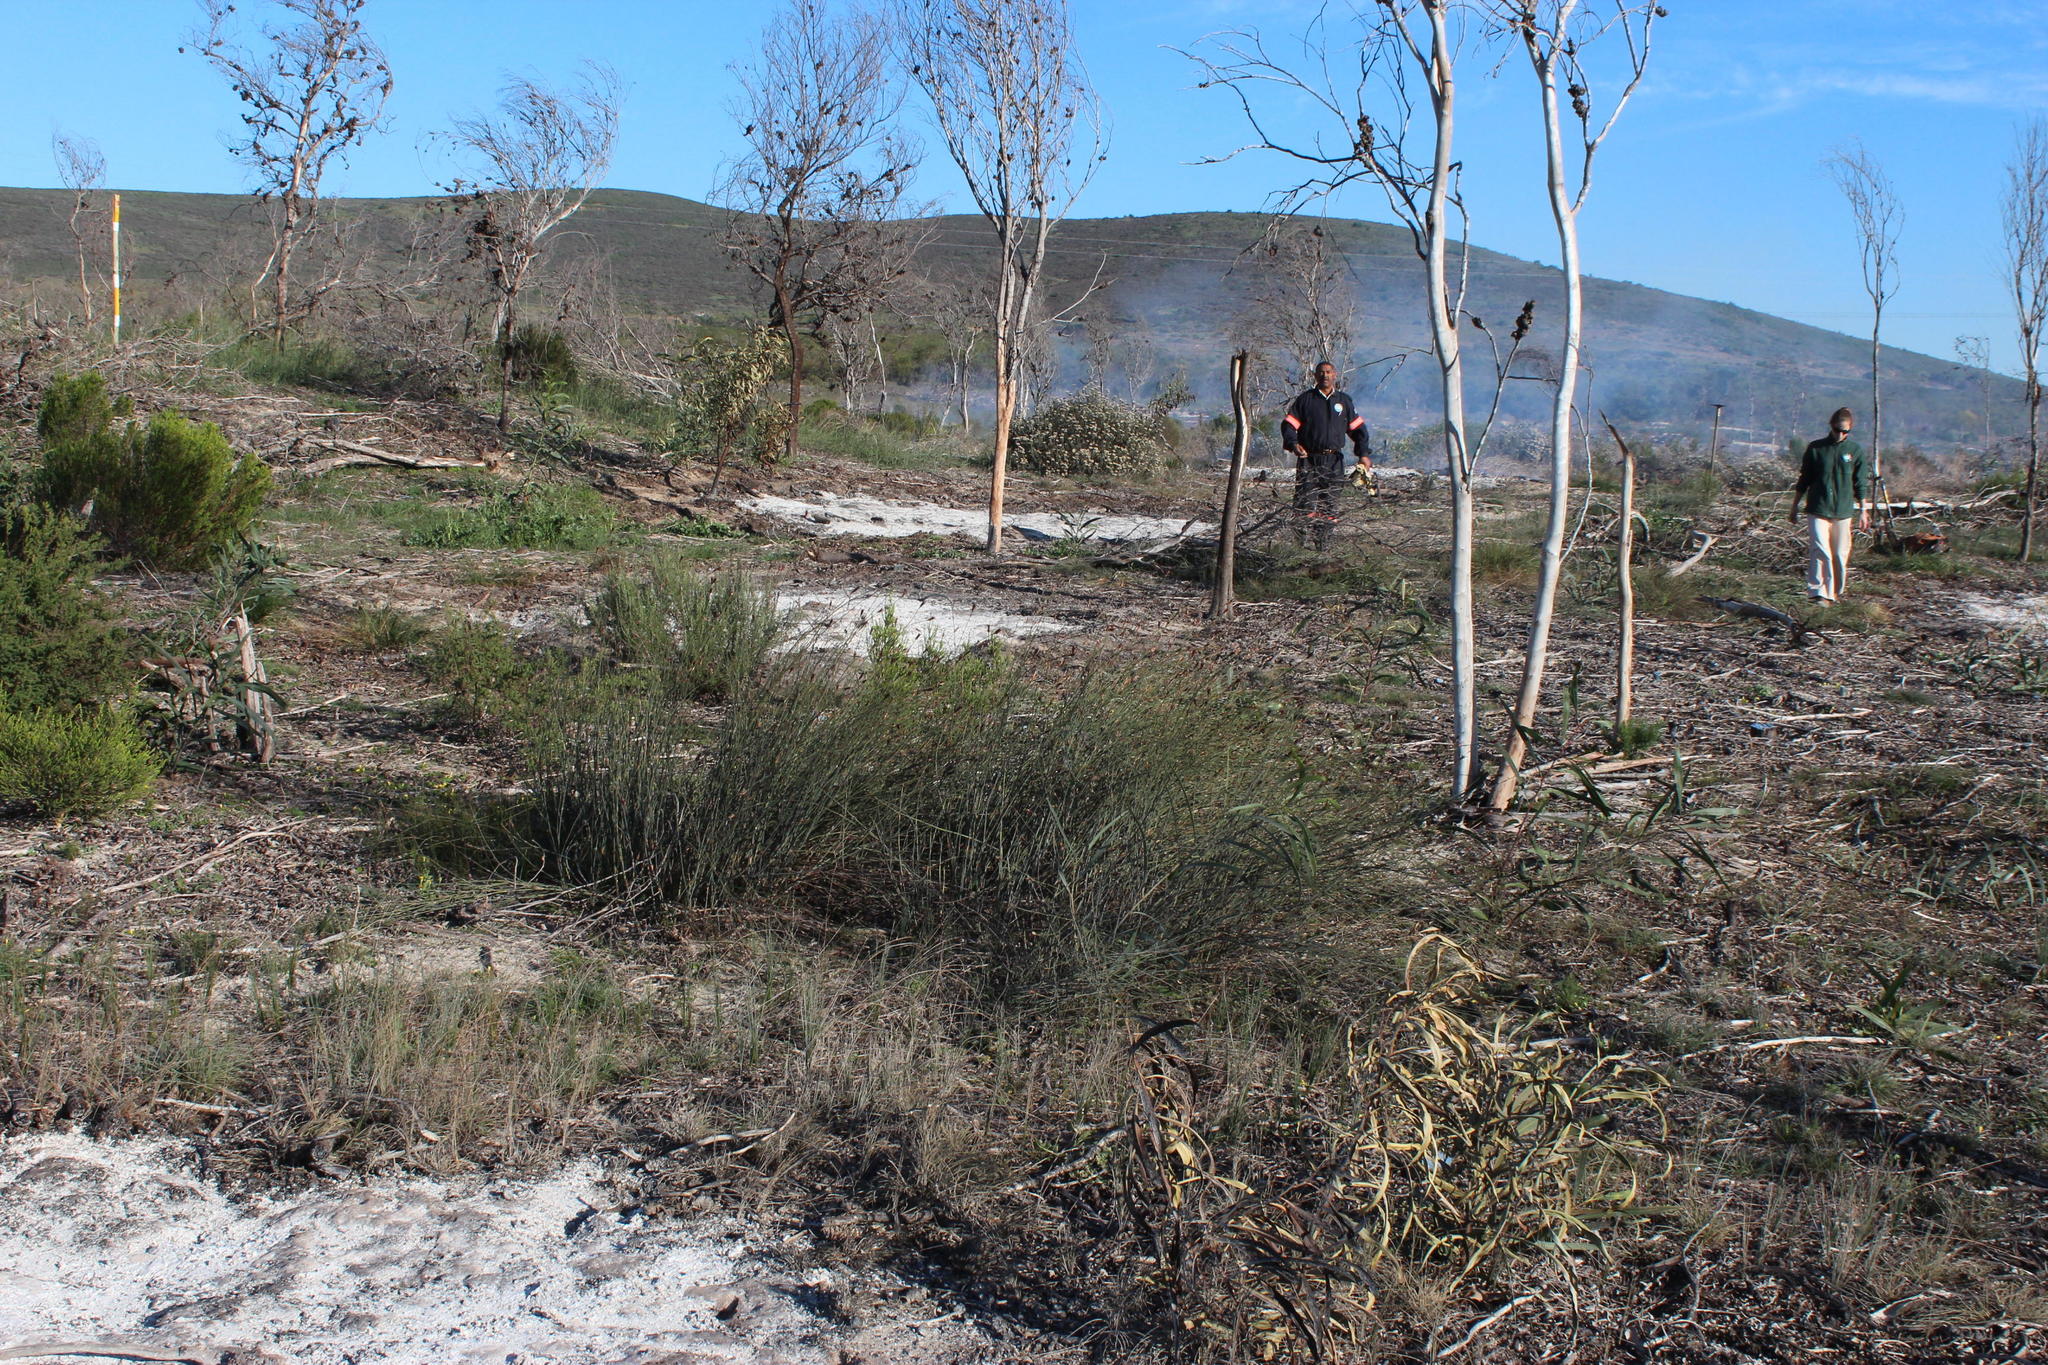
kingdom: Plantae
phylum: Tracheophyta
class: Liliopsida
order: Poales
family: Restionaceae
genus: Willdenowia
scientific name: Willdenowia incurvata
